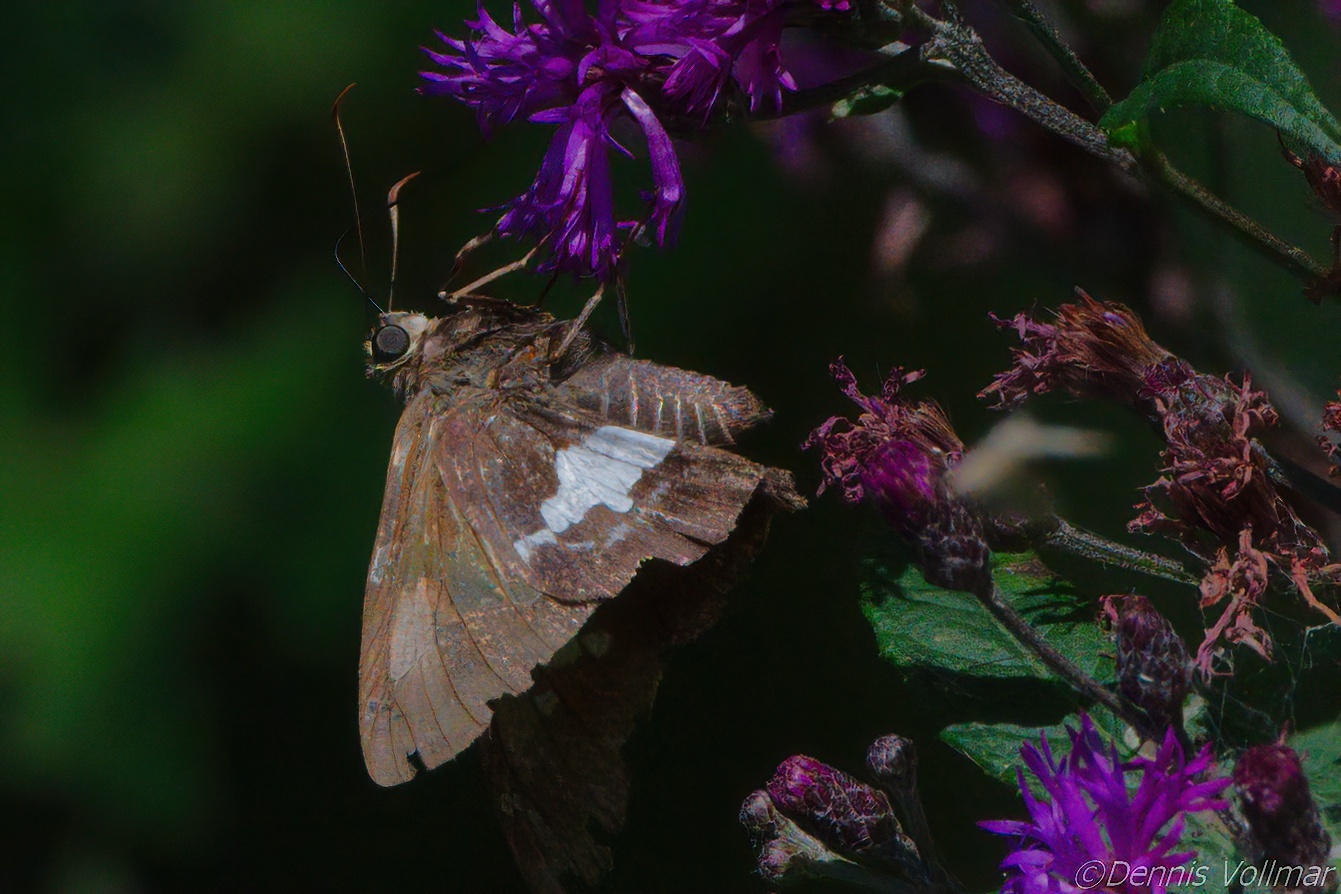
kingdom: Animalia
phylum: Arthropoda
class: Insecta
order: Lepidoptera
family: Hesperiidae
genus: Epargyreus
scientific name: Epargyreus clarus
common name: Silver-spotted skipper
